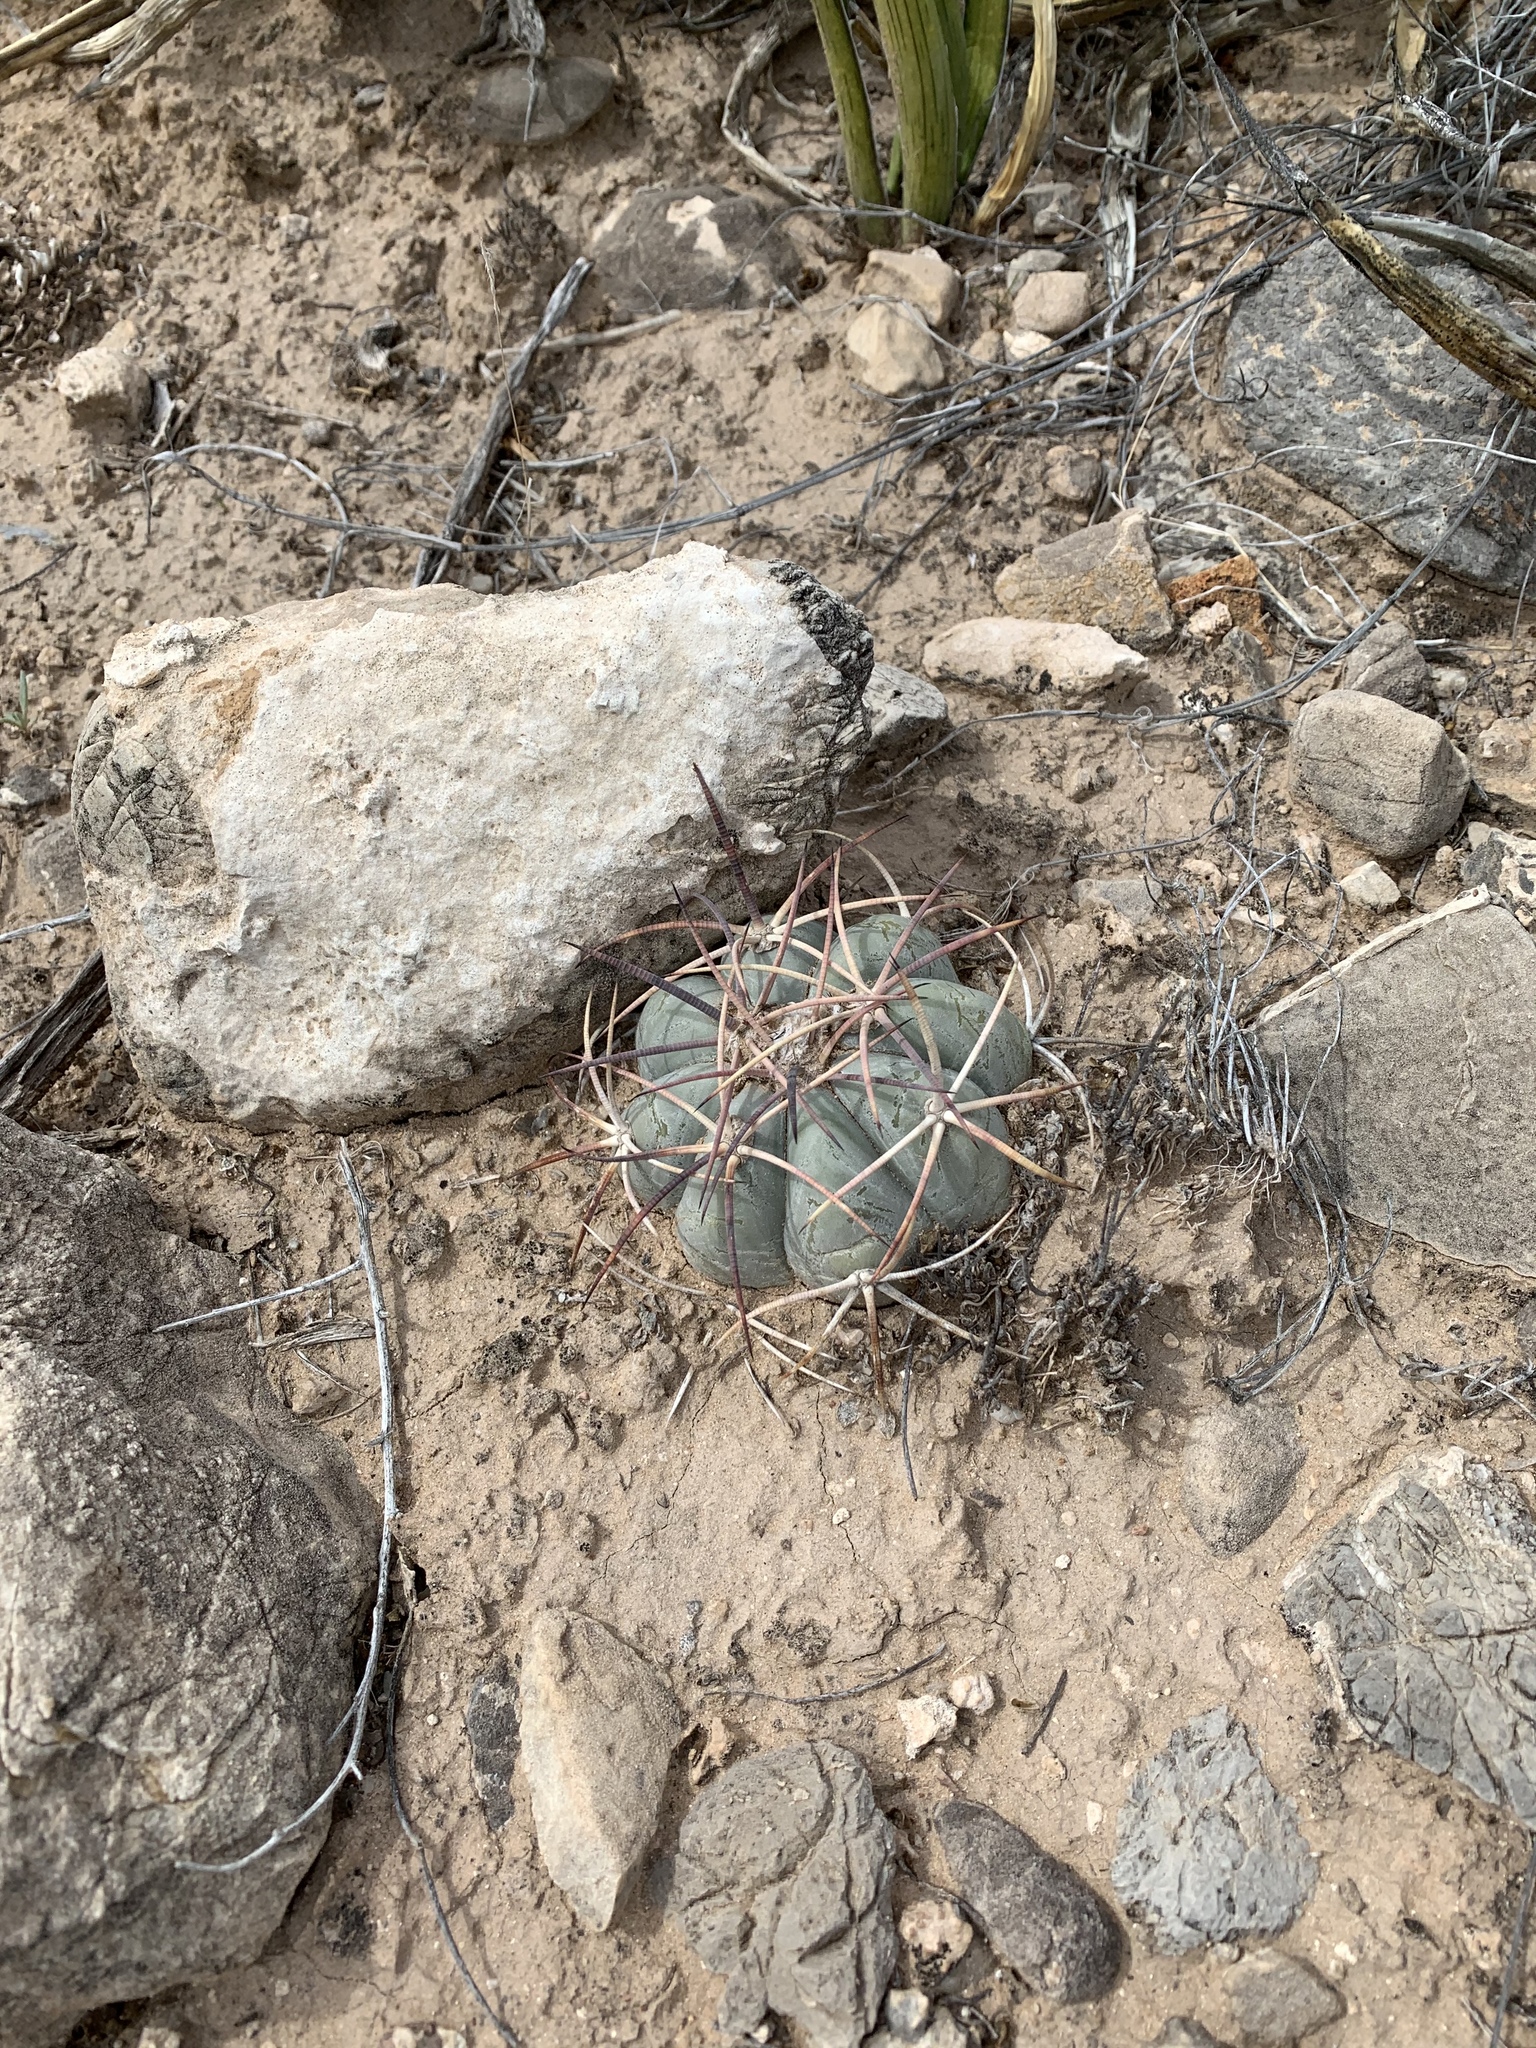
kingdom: Plantae
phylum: Tracheophyta
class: Magnoliopsida
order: Caryophyllales
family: Cactaceae
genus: Echinocactus
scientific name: Echinocactus horizonthalonius
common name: Devilshead
